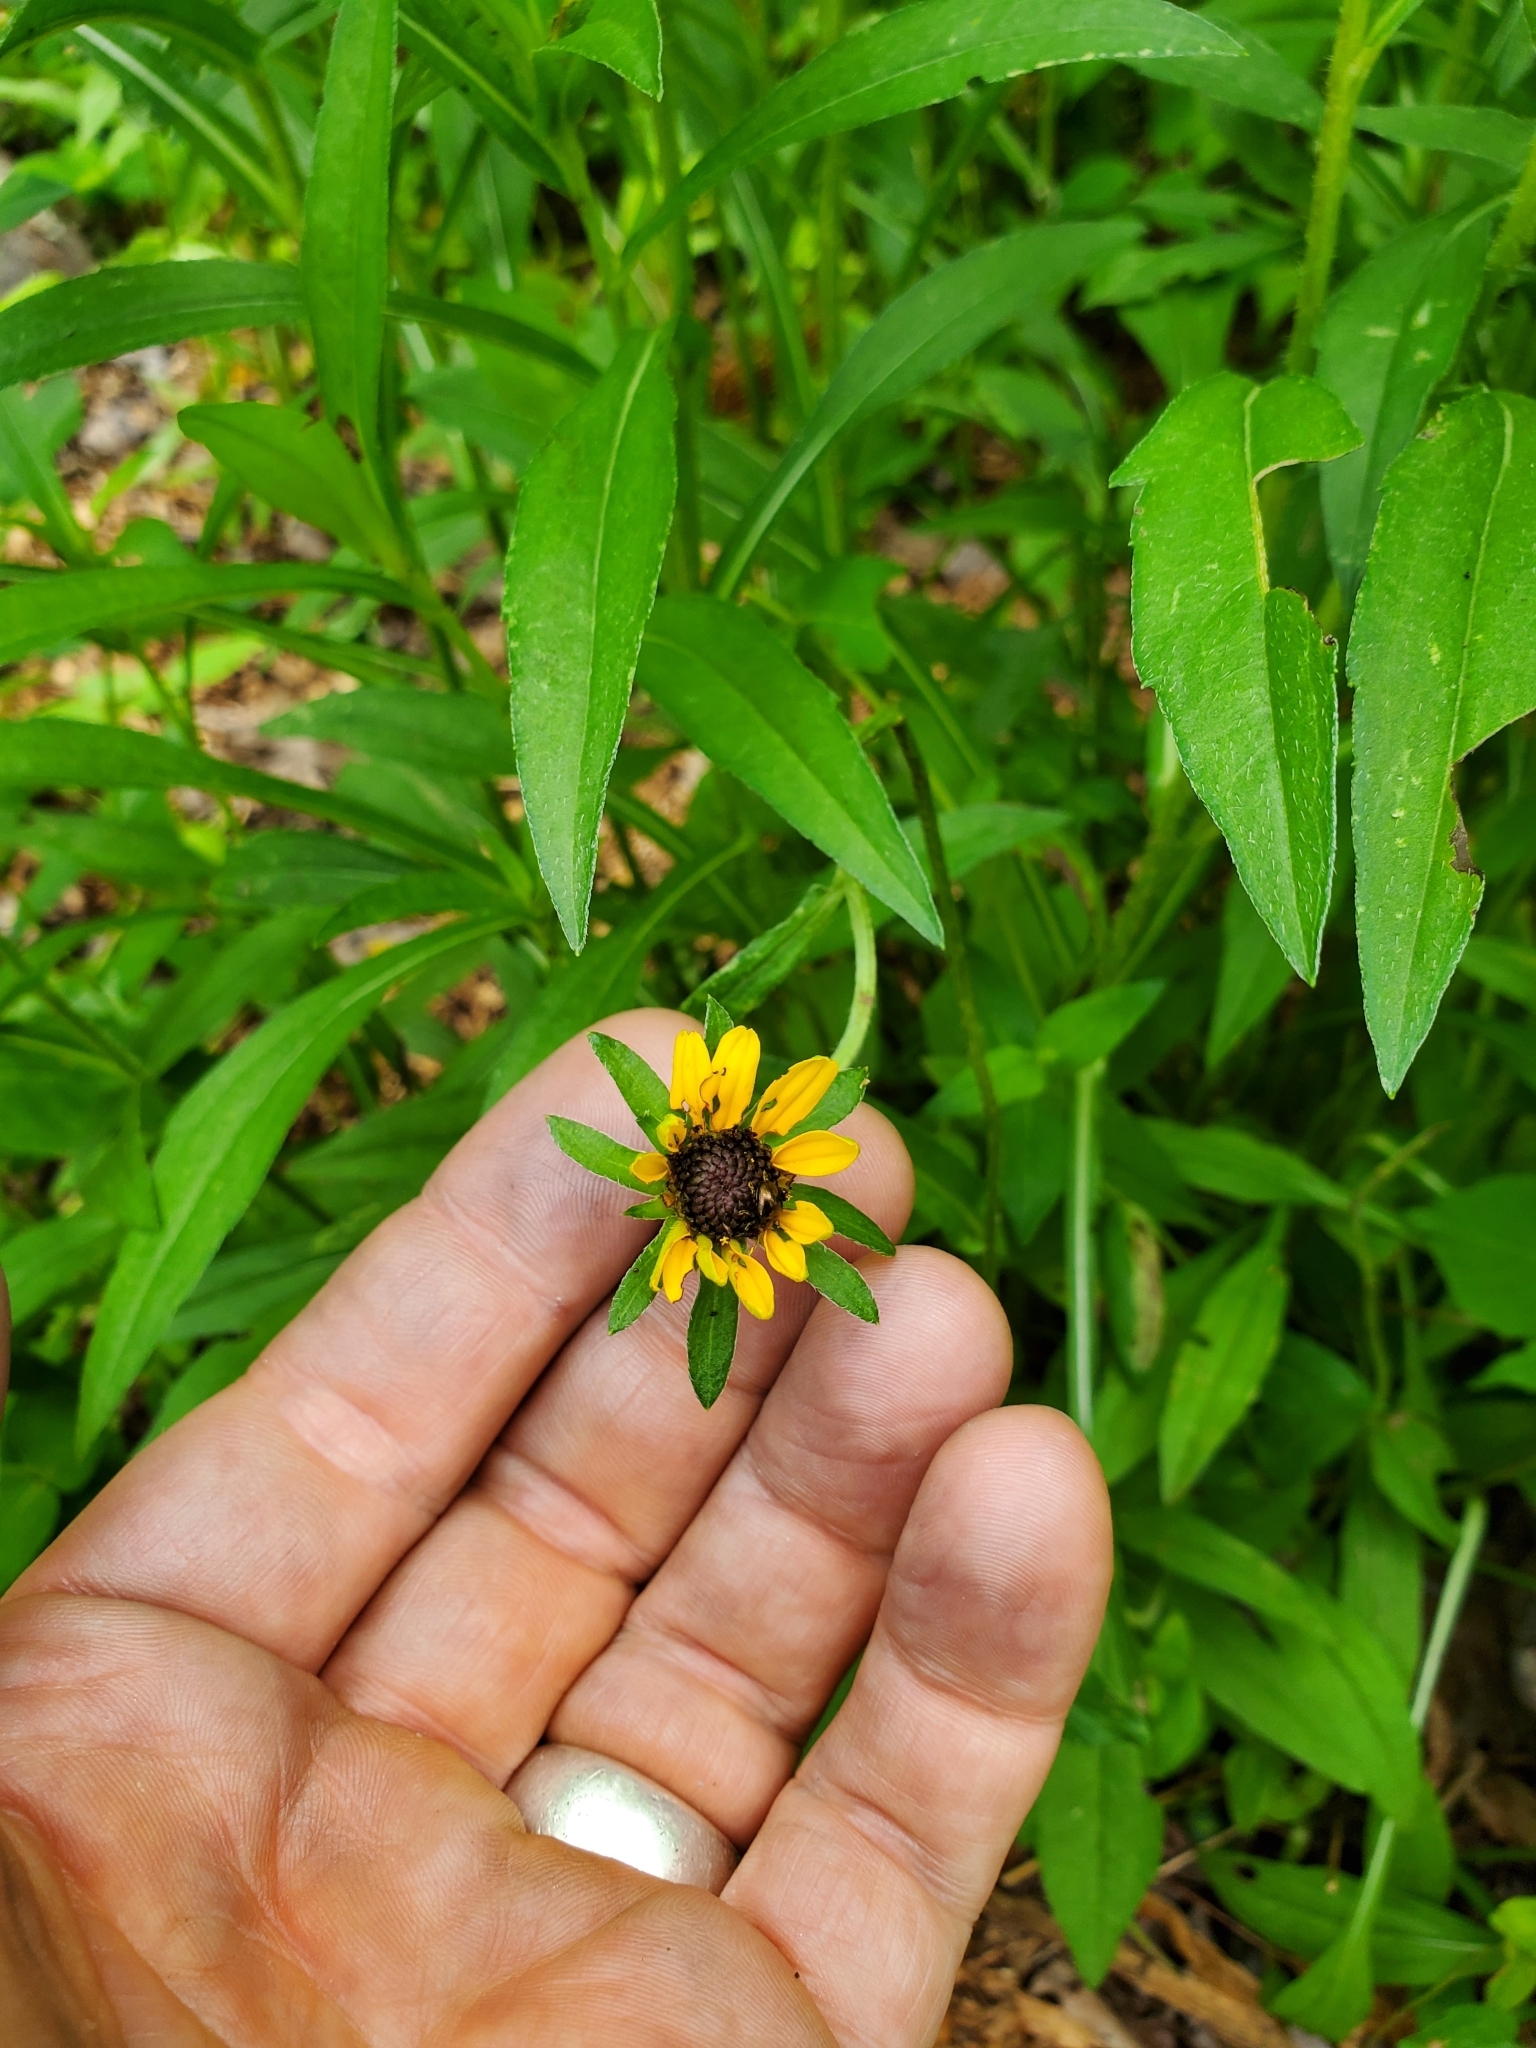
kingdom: Plantae
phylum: Tracheophyta
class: Magnoliopsida
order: Asterales
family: Asteraceae
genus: Rudbeckia
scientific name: Rudbeckia hirta
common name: Black-eyed-susan
